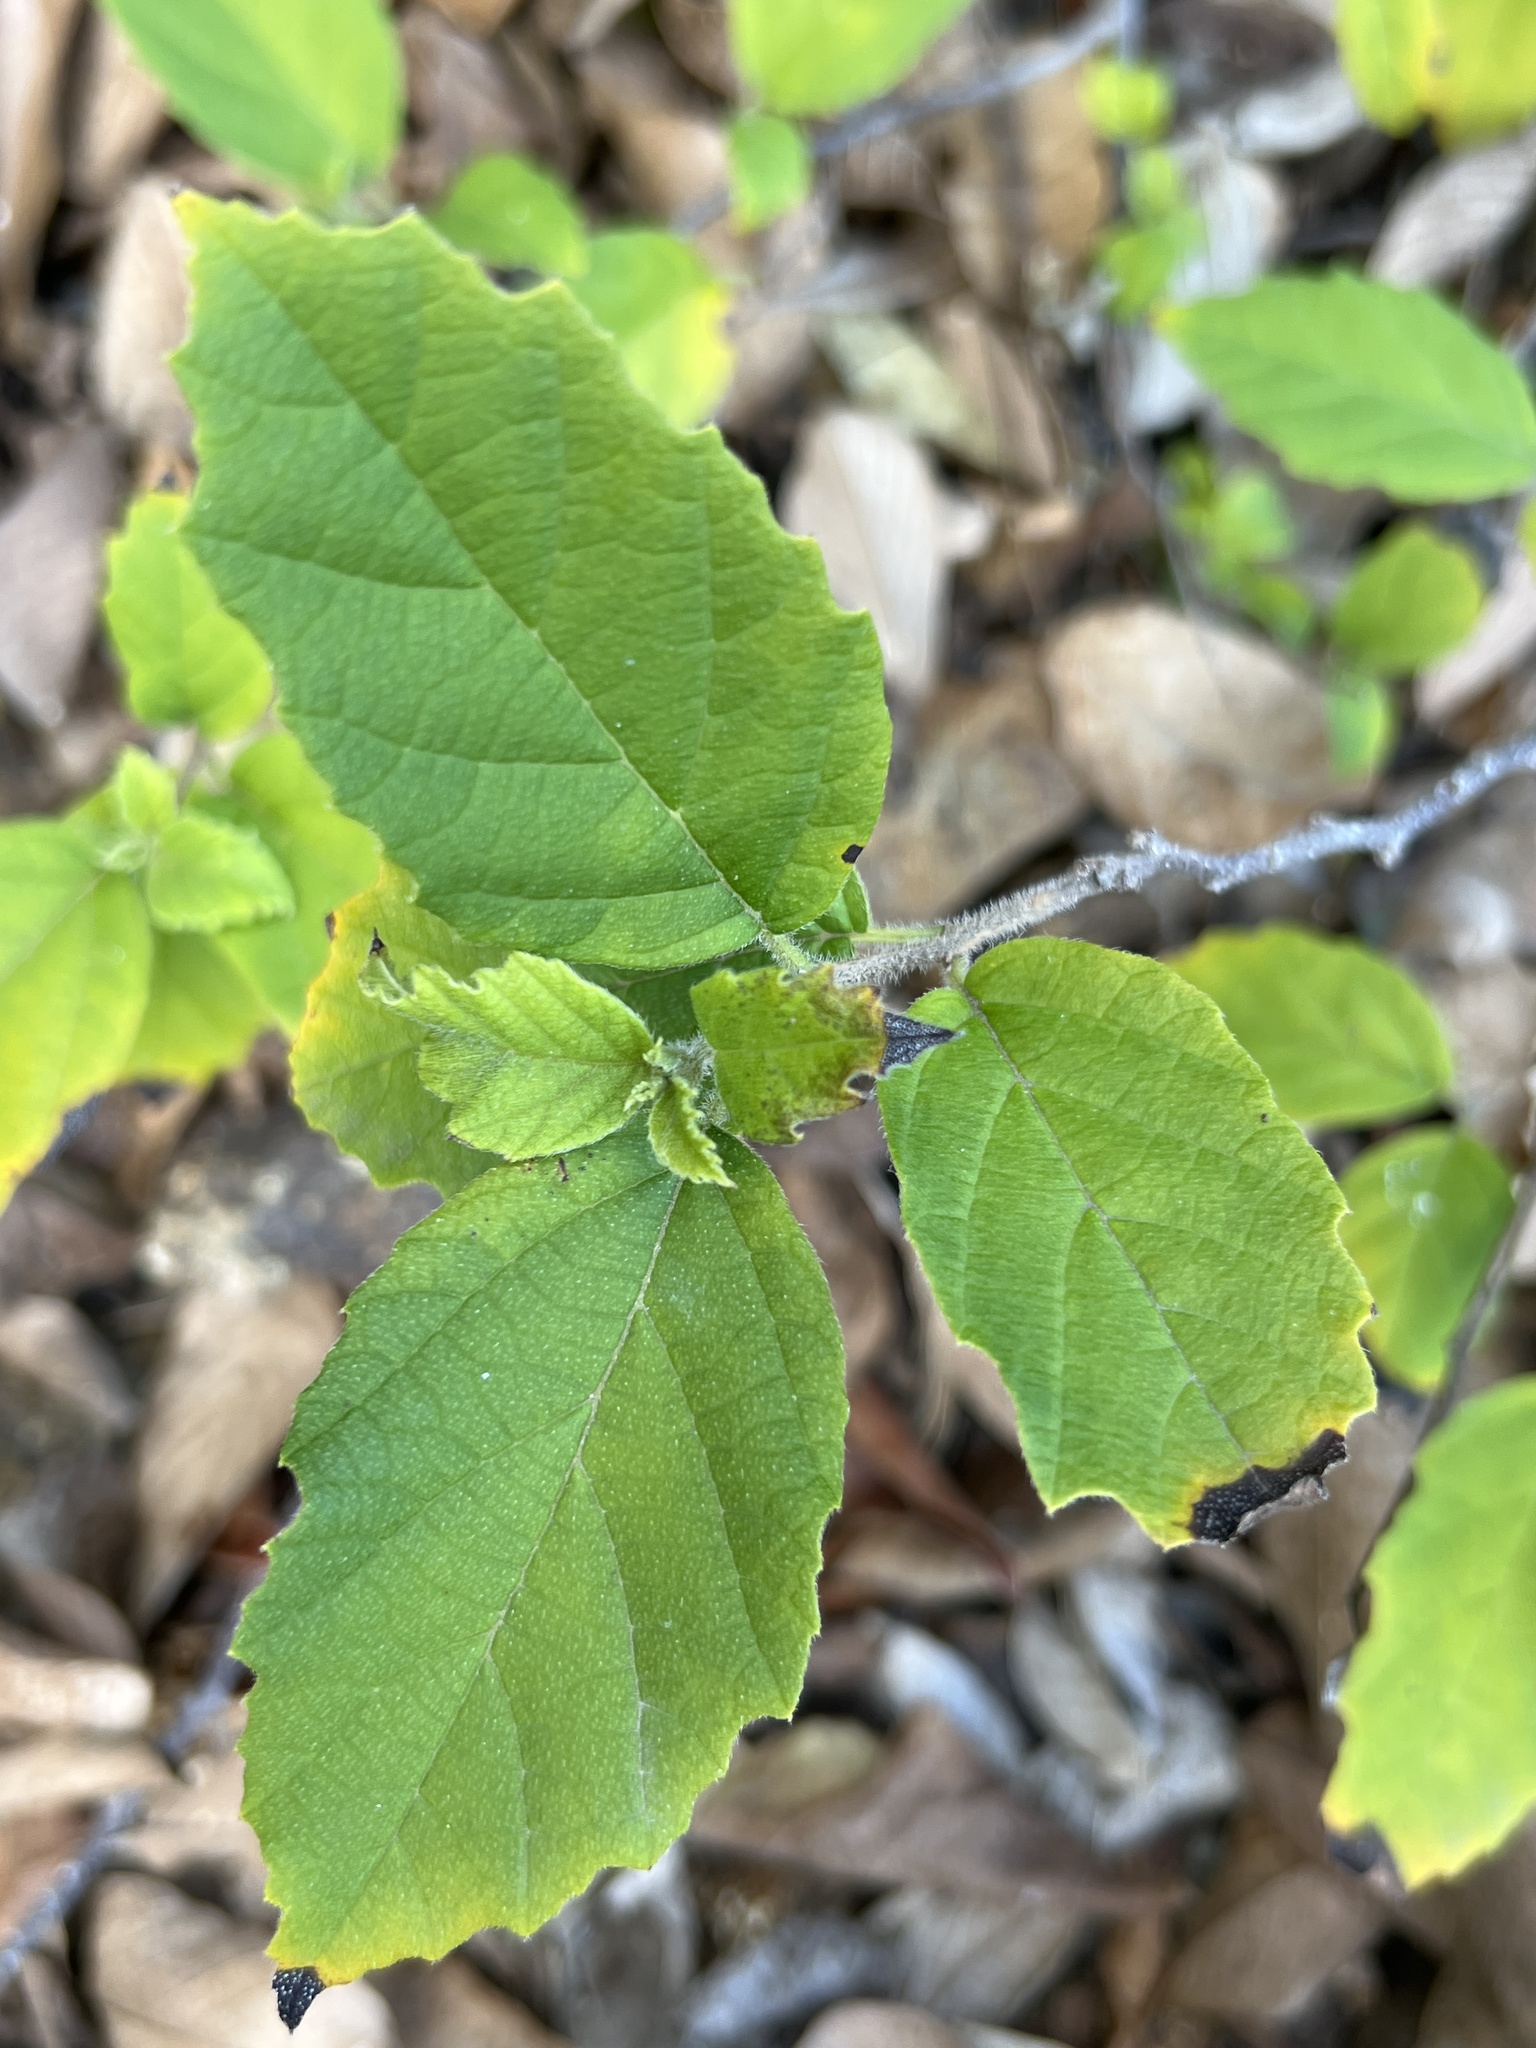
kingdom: Plantae
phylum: Tracheophyta
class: Magnoliopsida
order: Boraginales
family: Cordiaceae
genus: Cordia
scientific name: Cordia dentata
